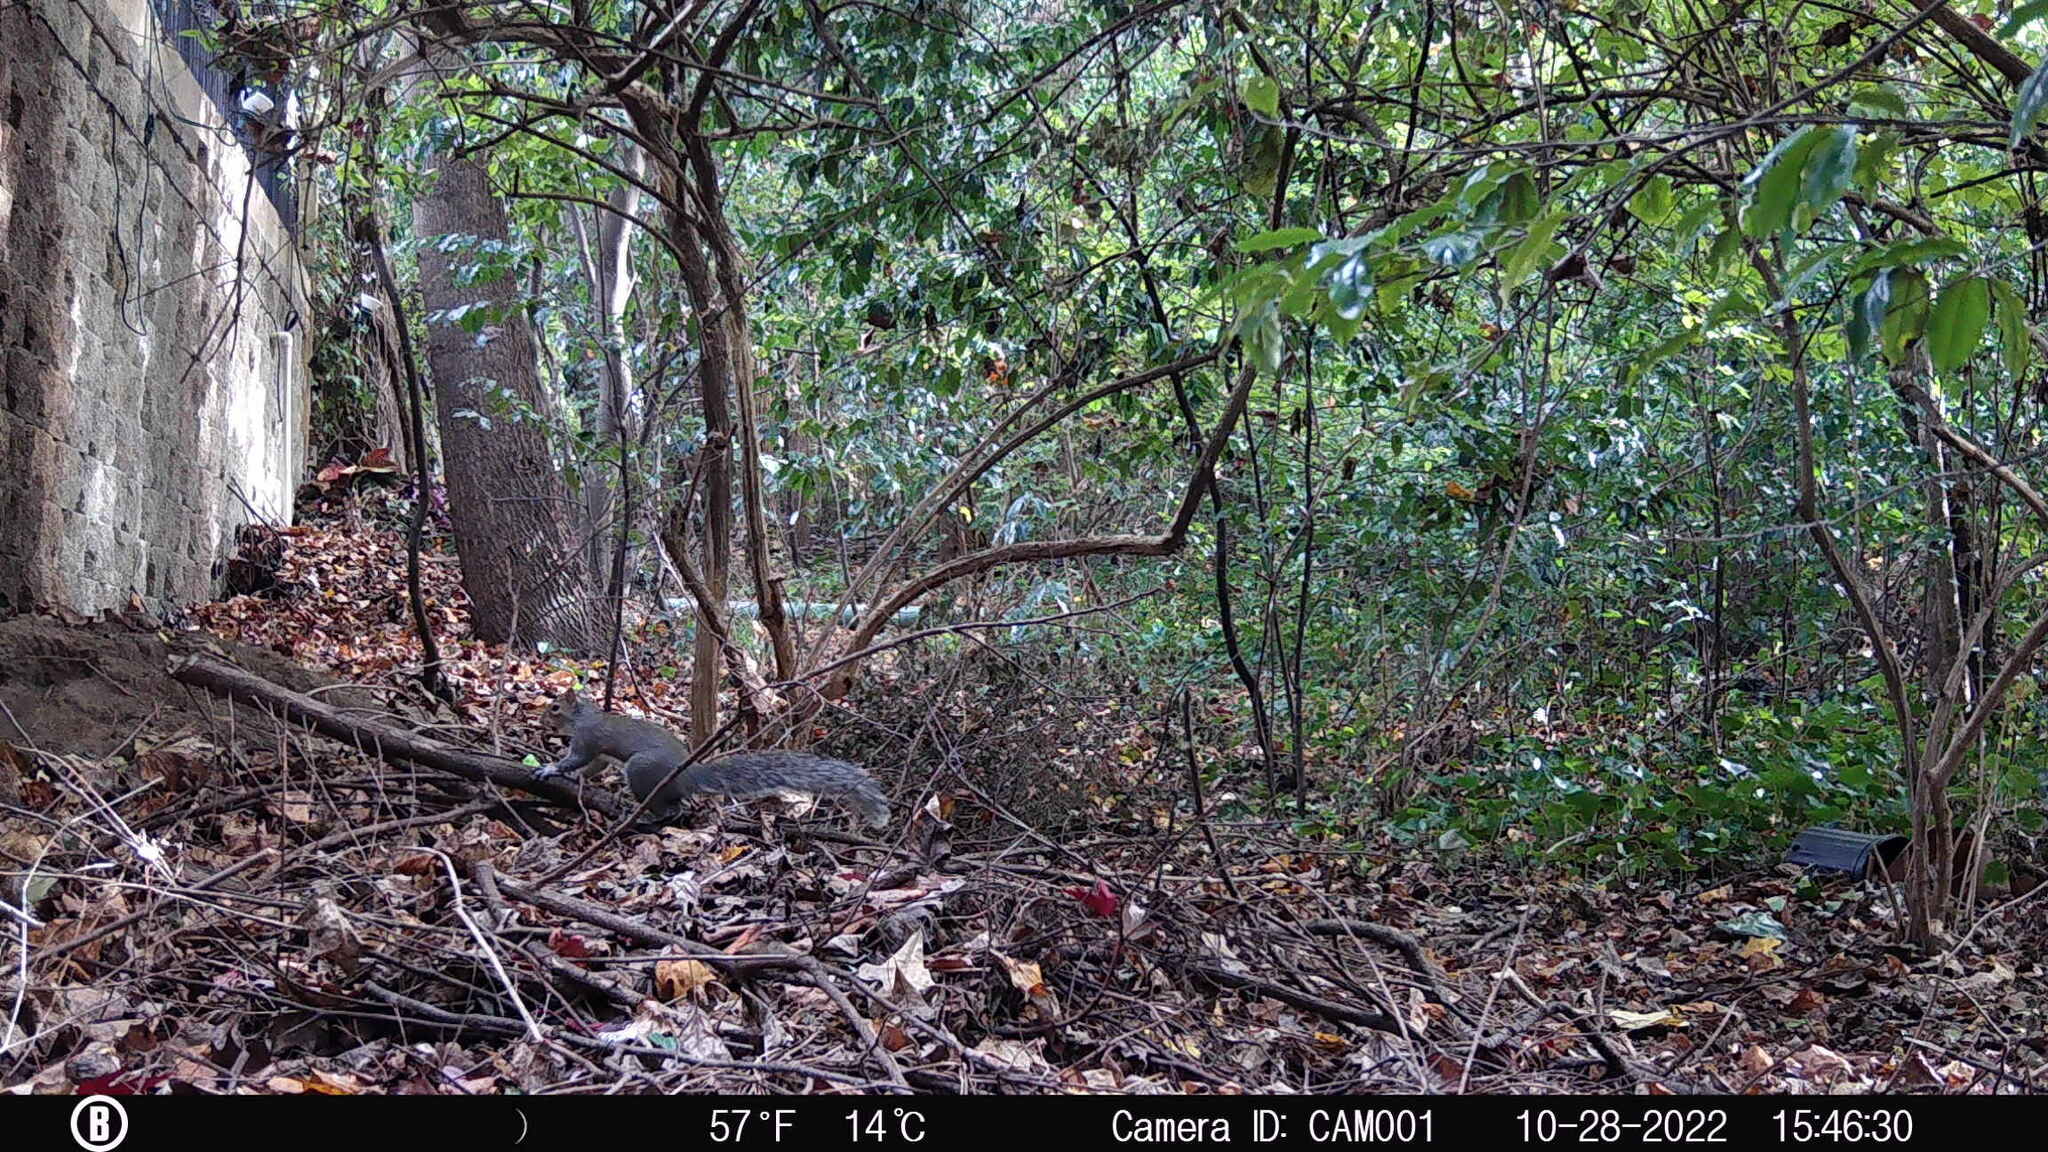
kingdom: Animalia
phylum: Chordata
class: Mammalia
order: Rodentia
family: Sciuridae
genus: Sciurus
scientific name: Sciurus carolinensis
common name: Eastern gray squirrel
